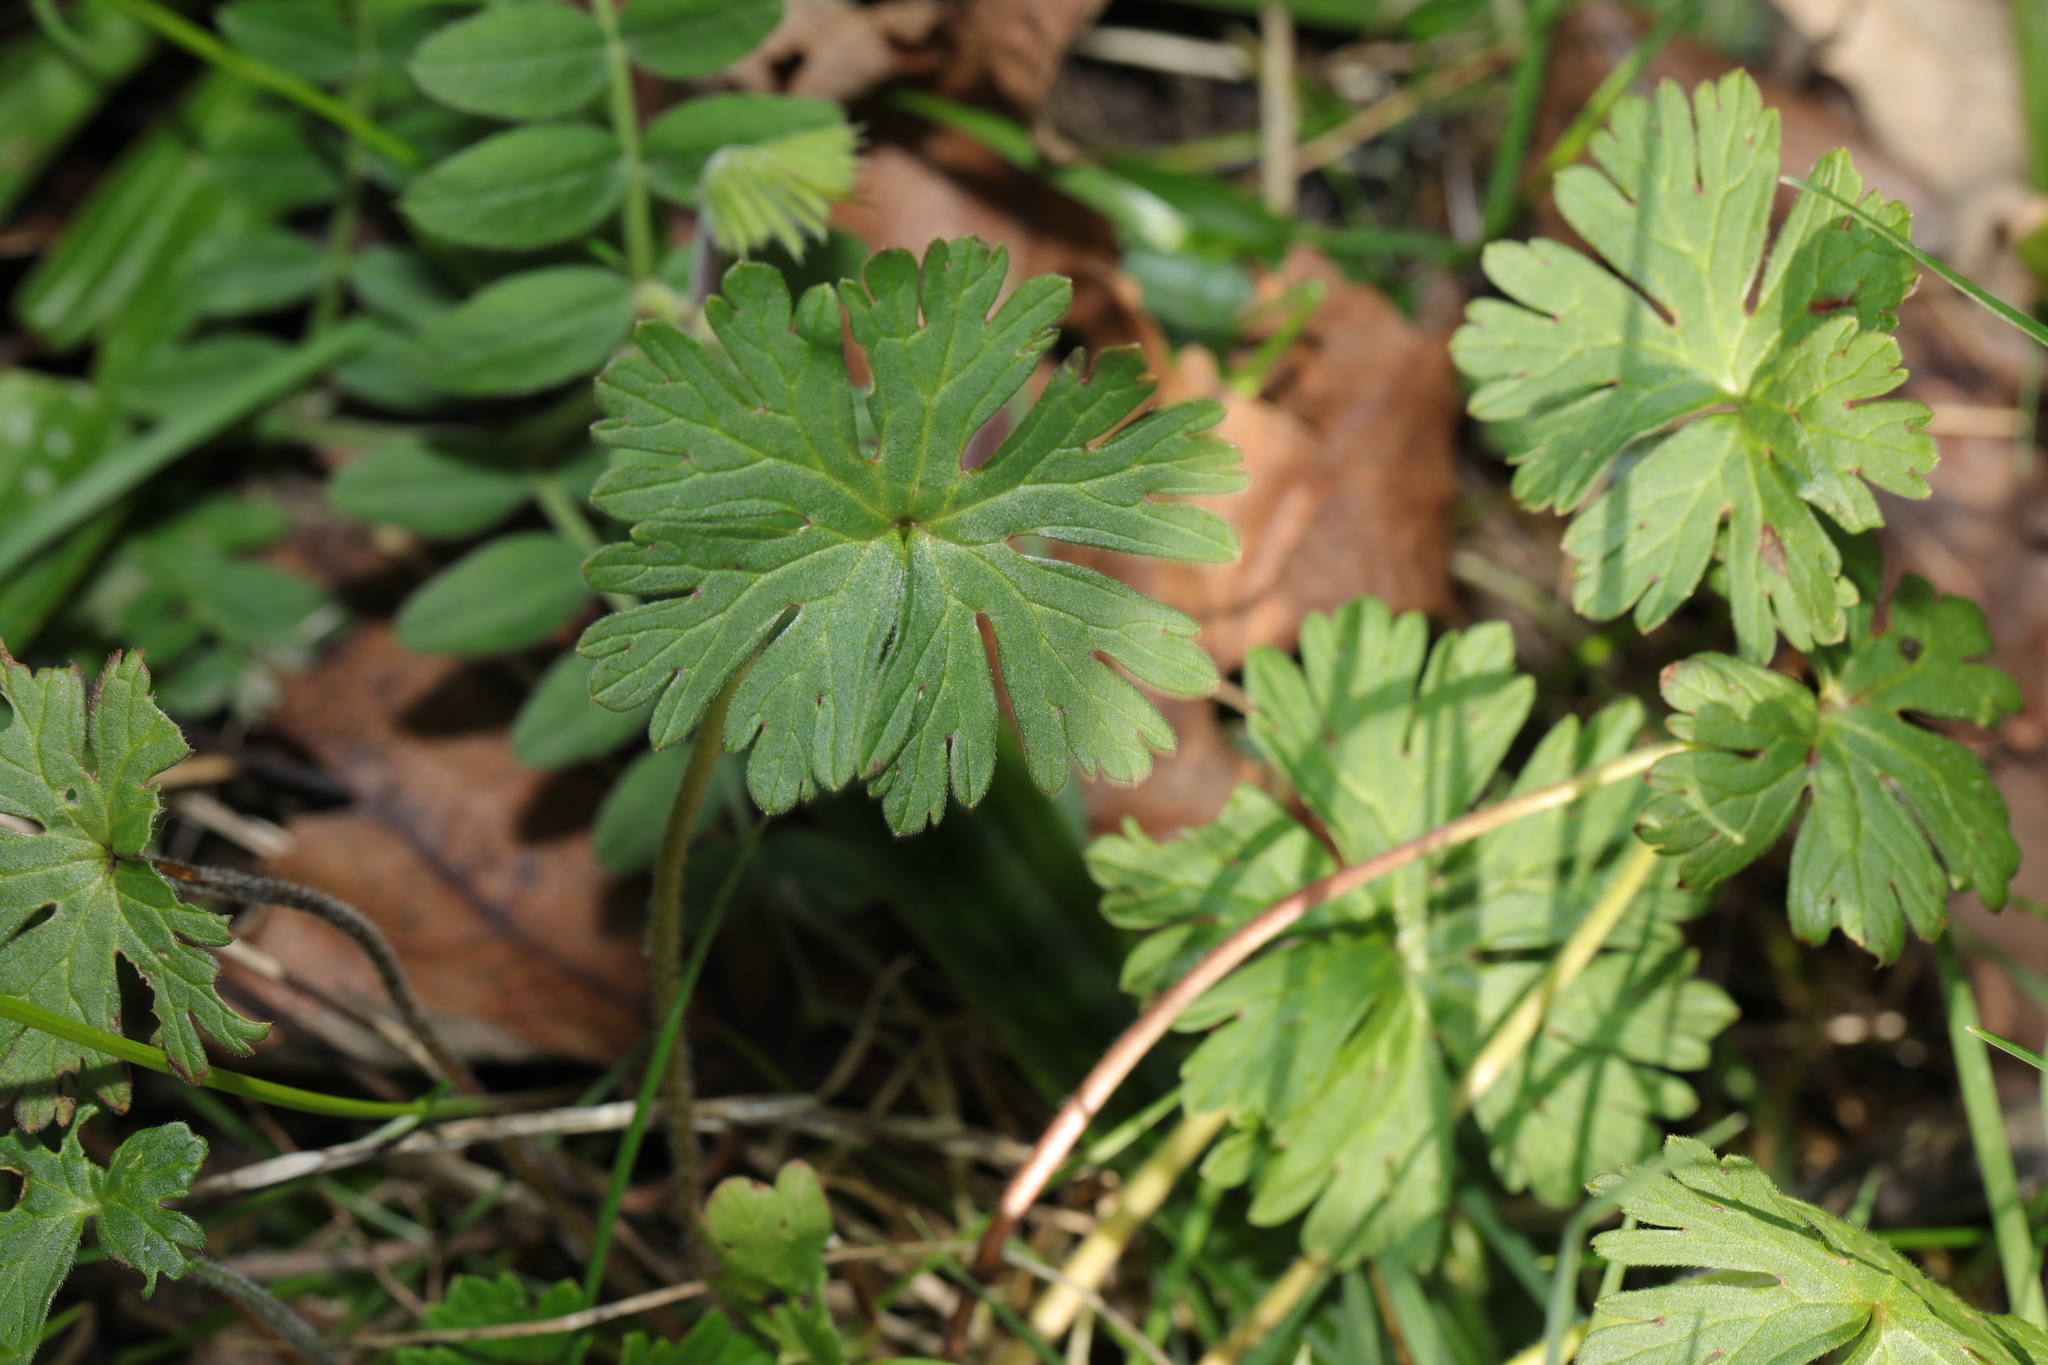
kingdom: Plantae
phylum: Tracheophyta
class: Magnoliopsida
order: Geraniales
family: Geraniaceae
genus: Geranium
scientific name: Geranium dissectum
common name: Cut-leaved crane's-bill
